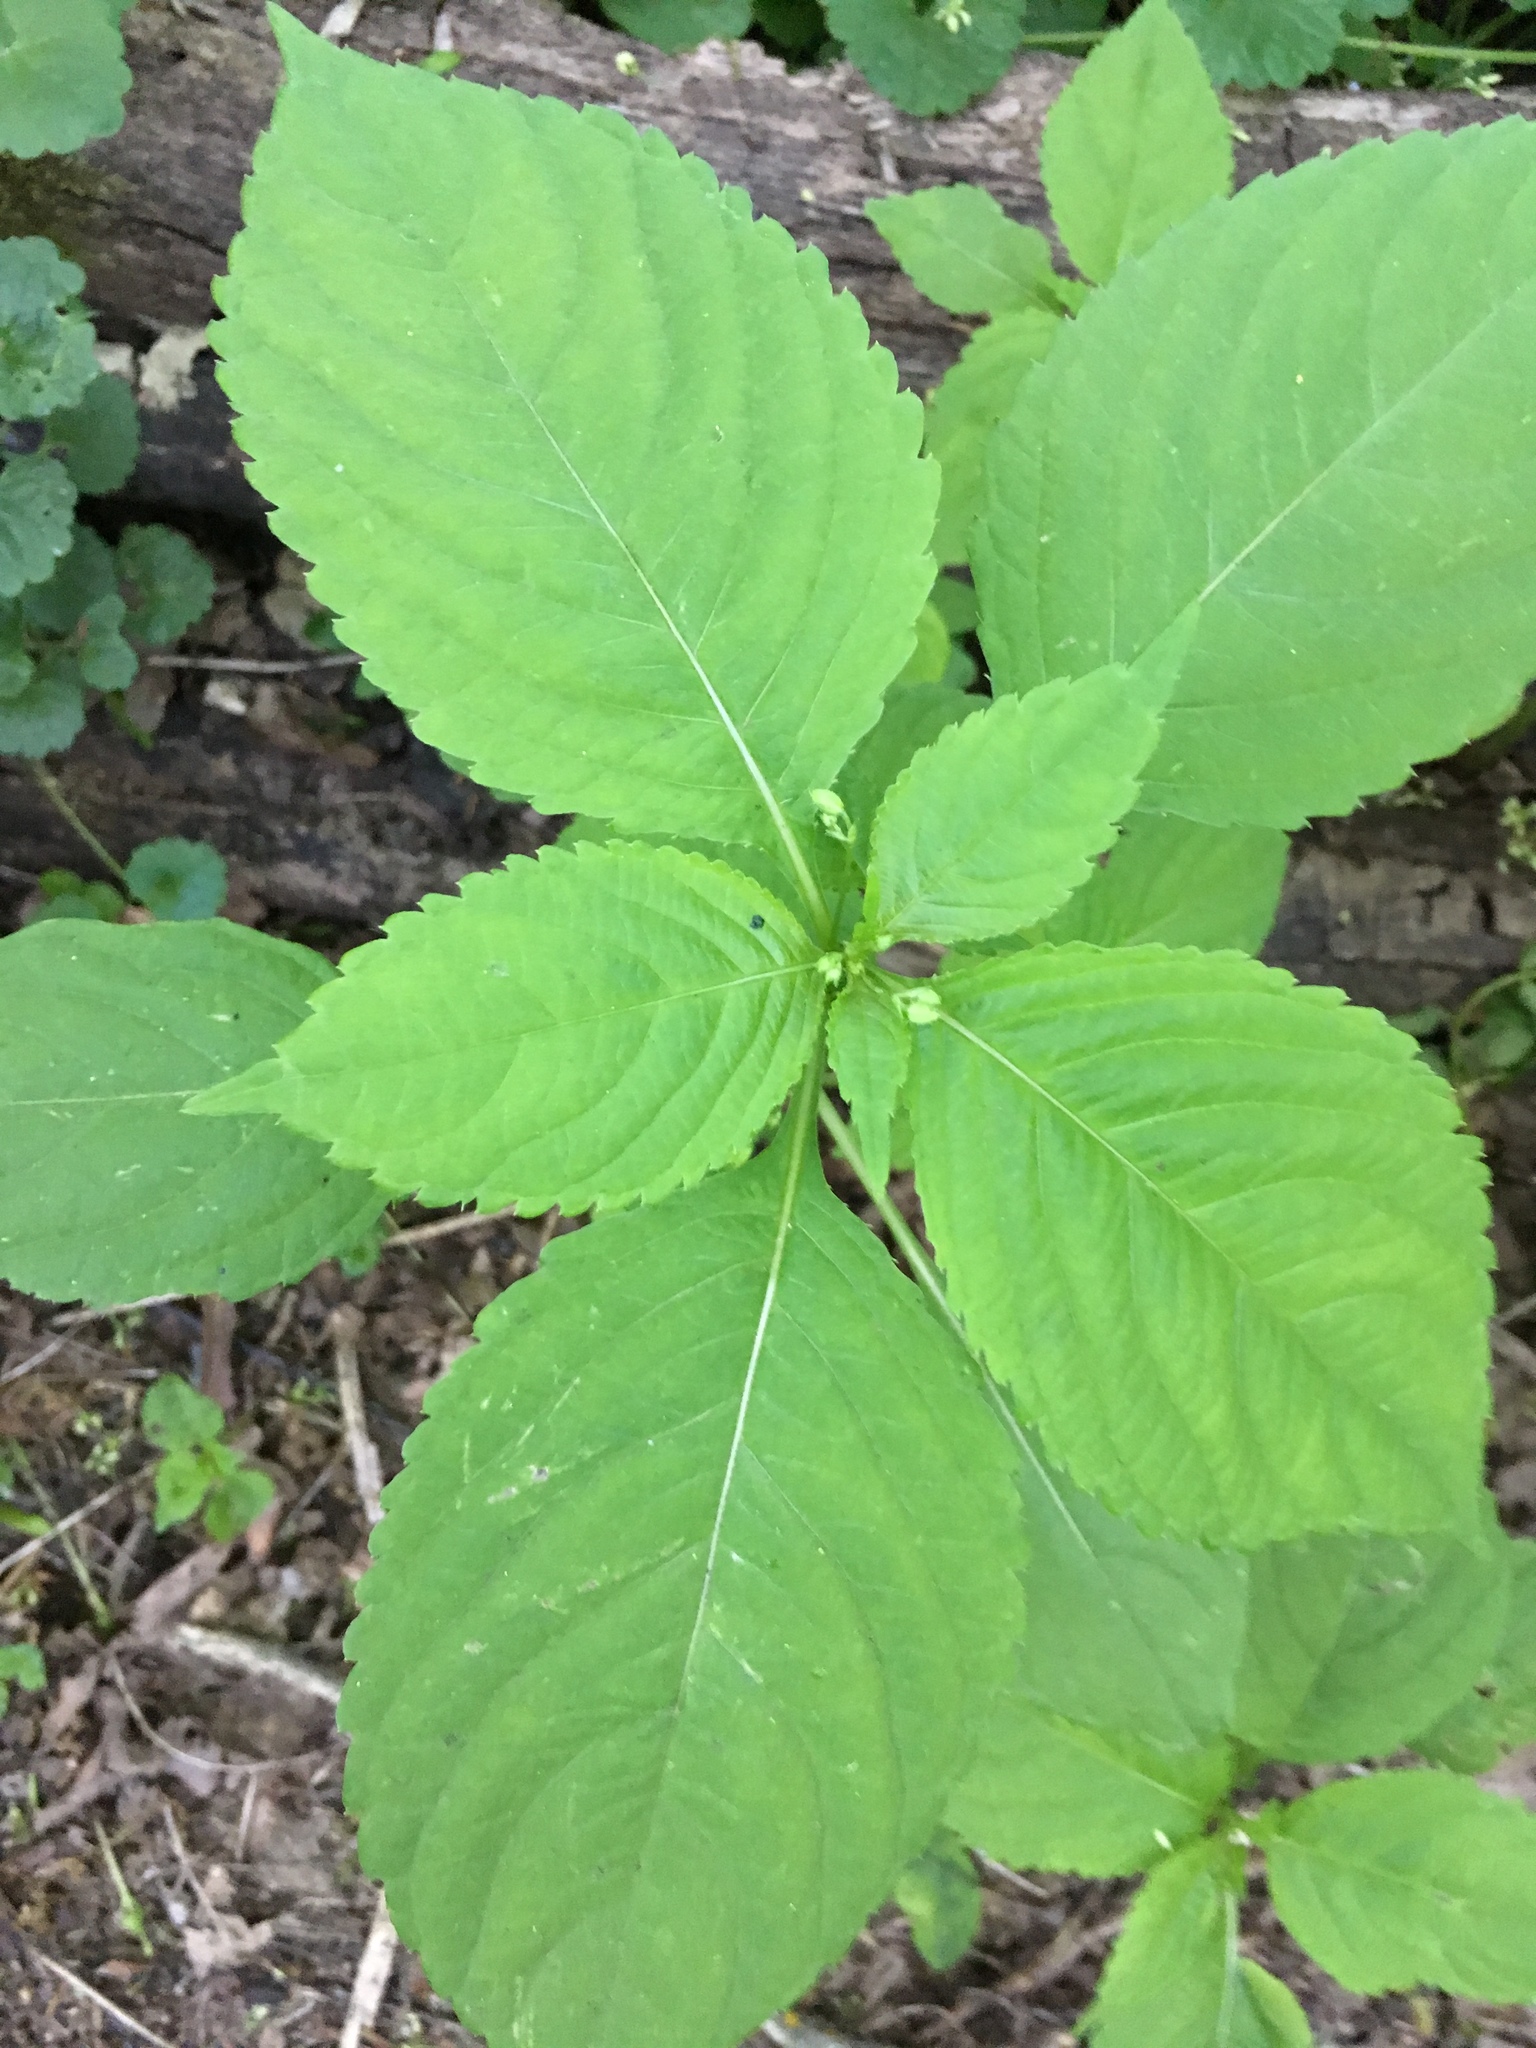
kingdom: Plantae
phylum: Tracheophyta
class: Magnoliopsida
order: Ericales
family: Balsaminaceae
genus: Impatiens
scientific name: Impatiens parviflora
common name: Small balsam
